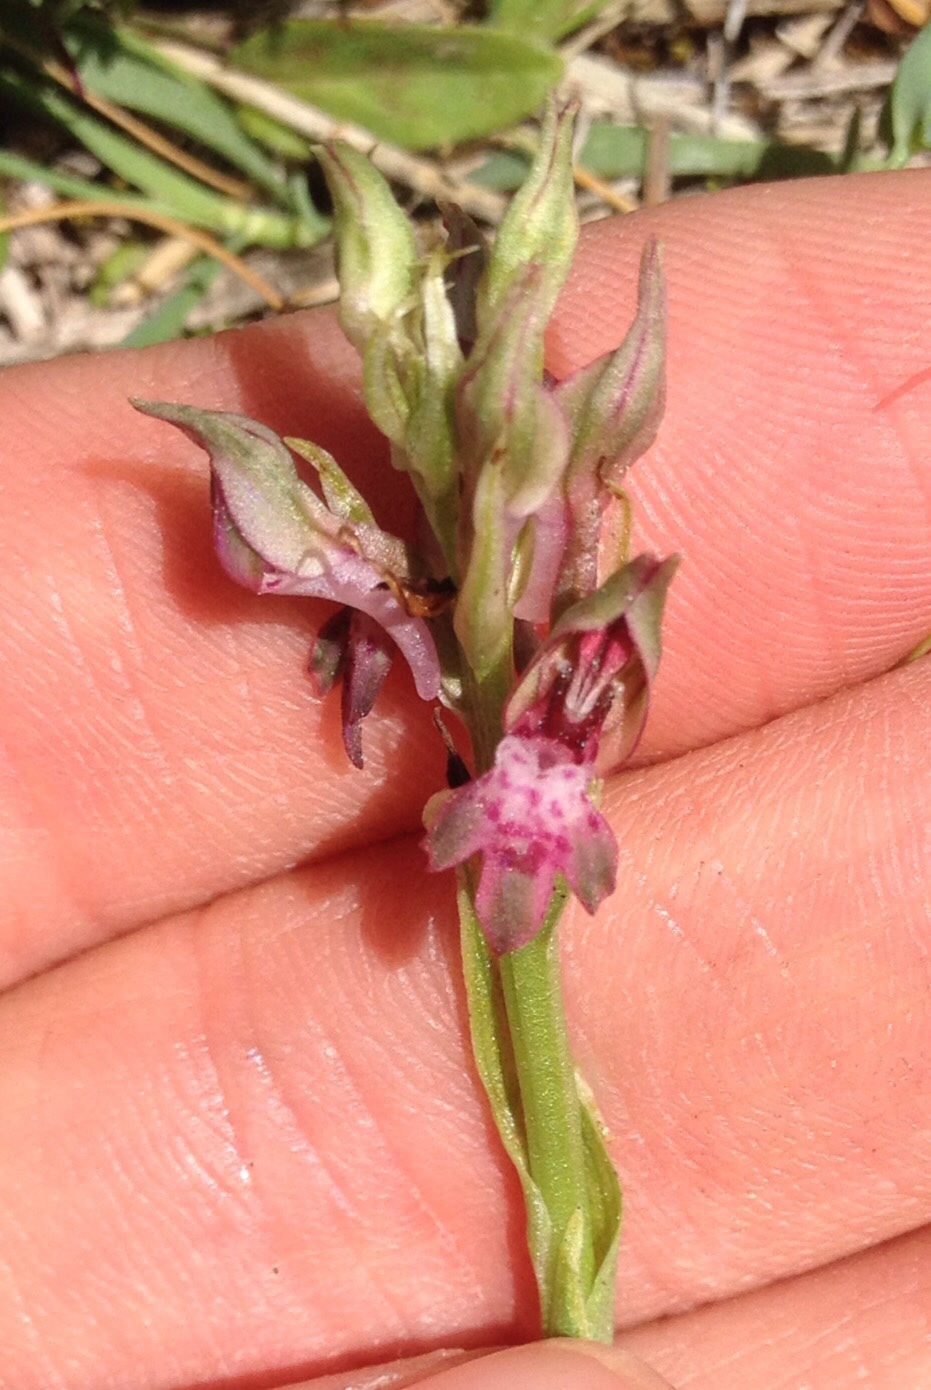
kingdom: Plantae
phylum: Tracheophyta
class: Liliopsida
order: Asparagales
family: Orchidaceae
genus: Anacamptis
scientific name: Anacamptis coriophora
